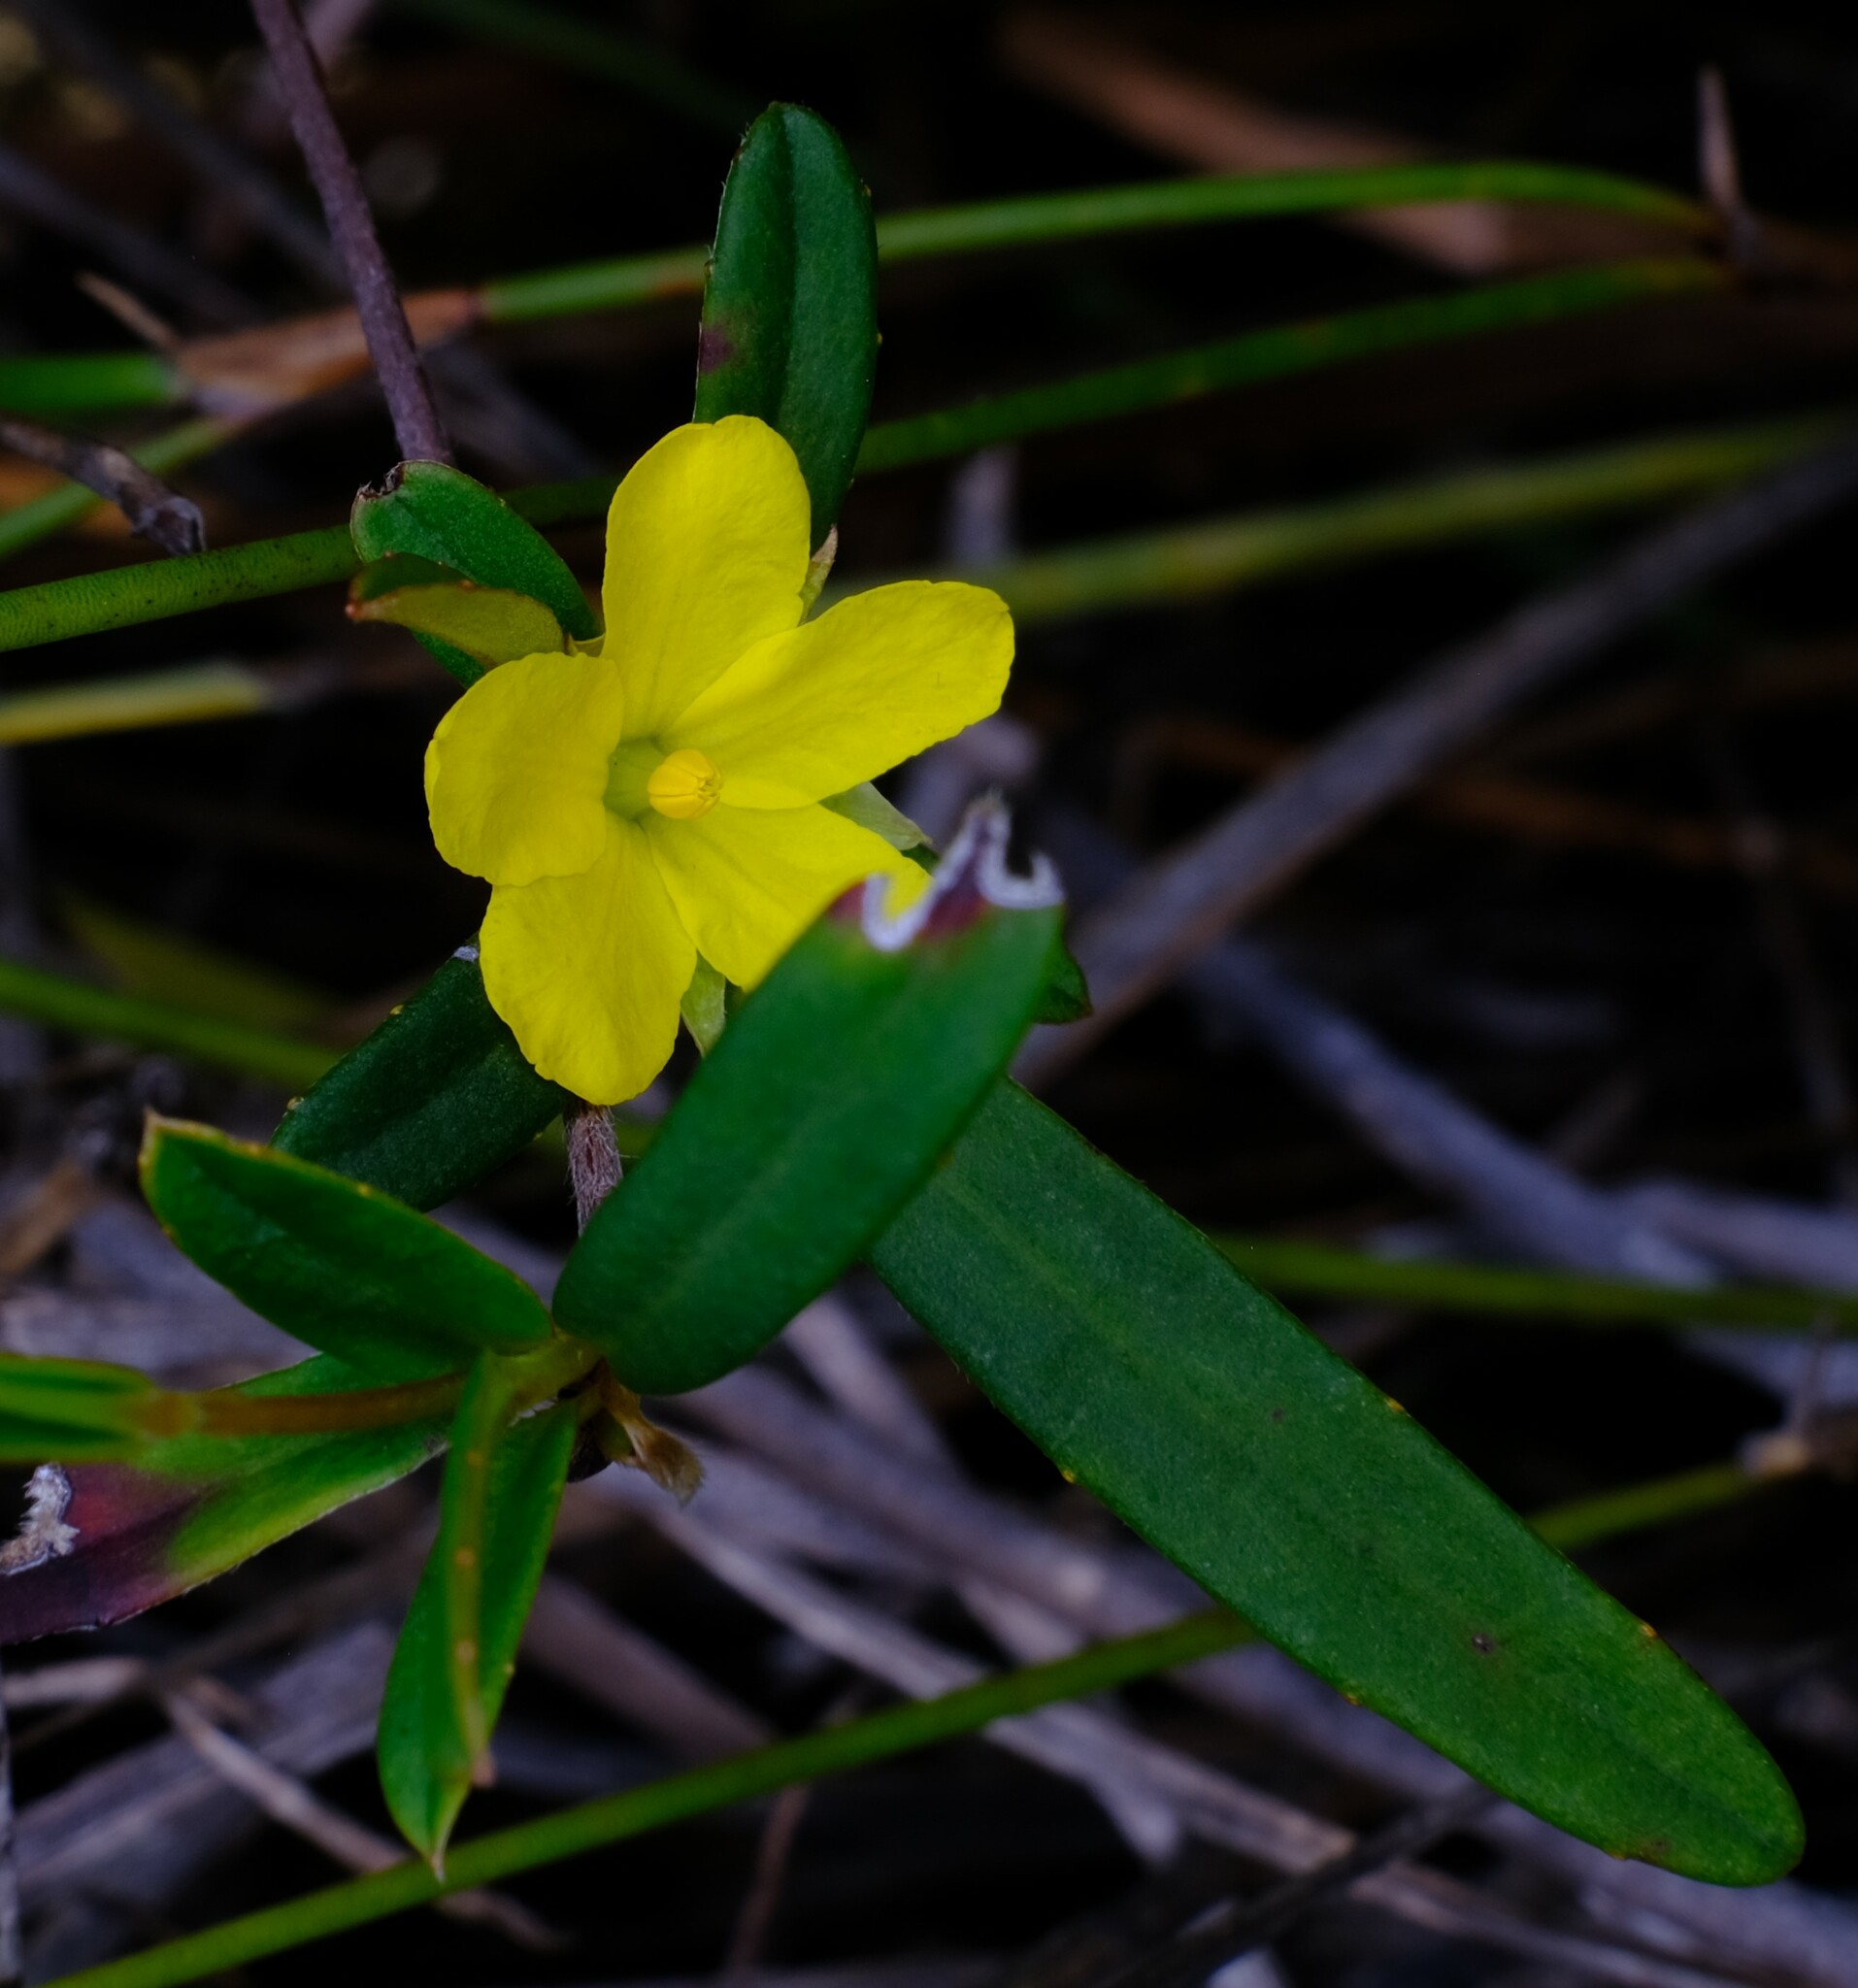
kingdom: Plantae
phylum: Tracheophyta
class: Magnoliopsida
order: Dilleniales
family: Dilleniaceae
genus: Hibbertia
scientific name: Hibbertia salicifolia
